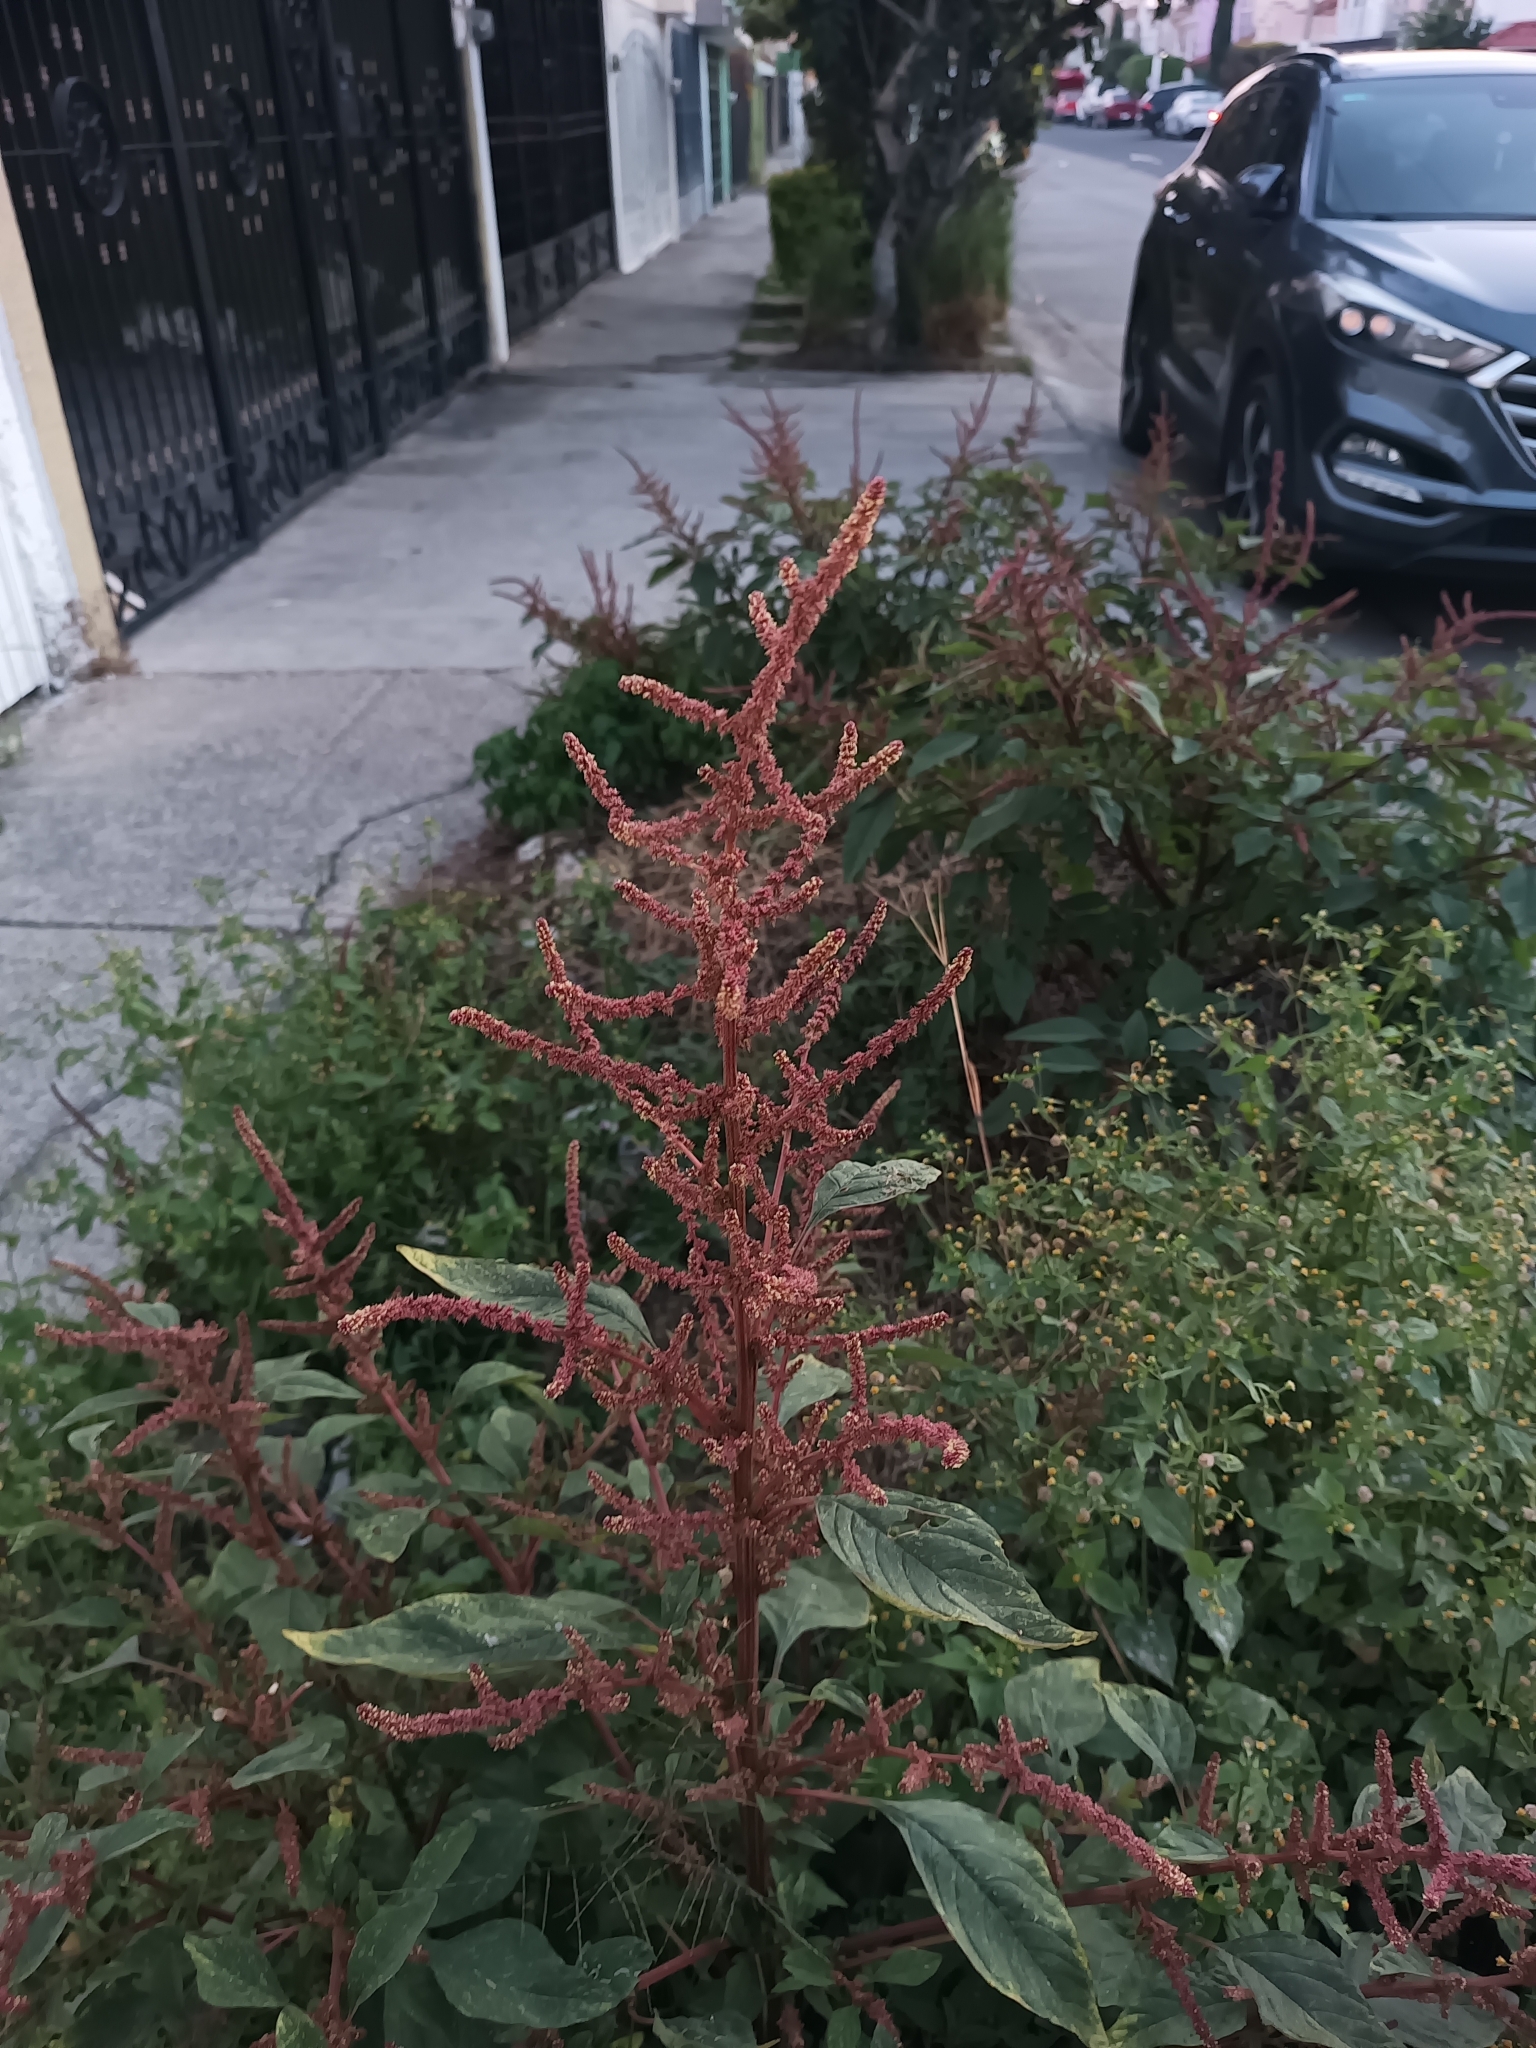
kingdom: Plantae
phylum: Tracheophyta
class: Magnoliopsida
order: Caryophyllales
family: Amaranthaceae
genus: Amaranthus
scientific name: Amaranthus hybridus
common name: Green amaranth
